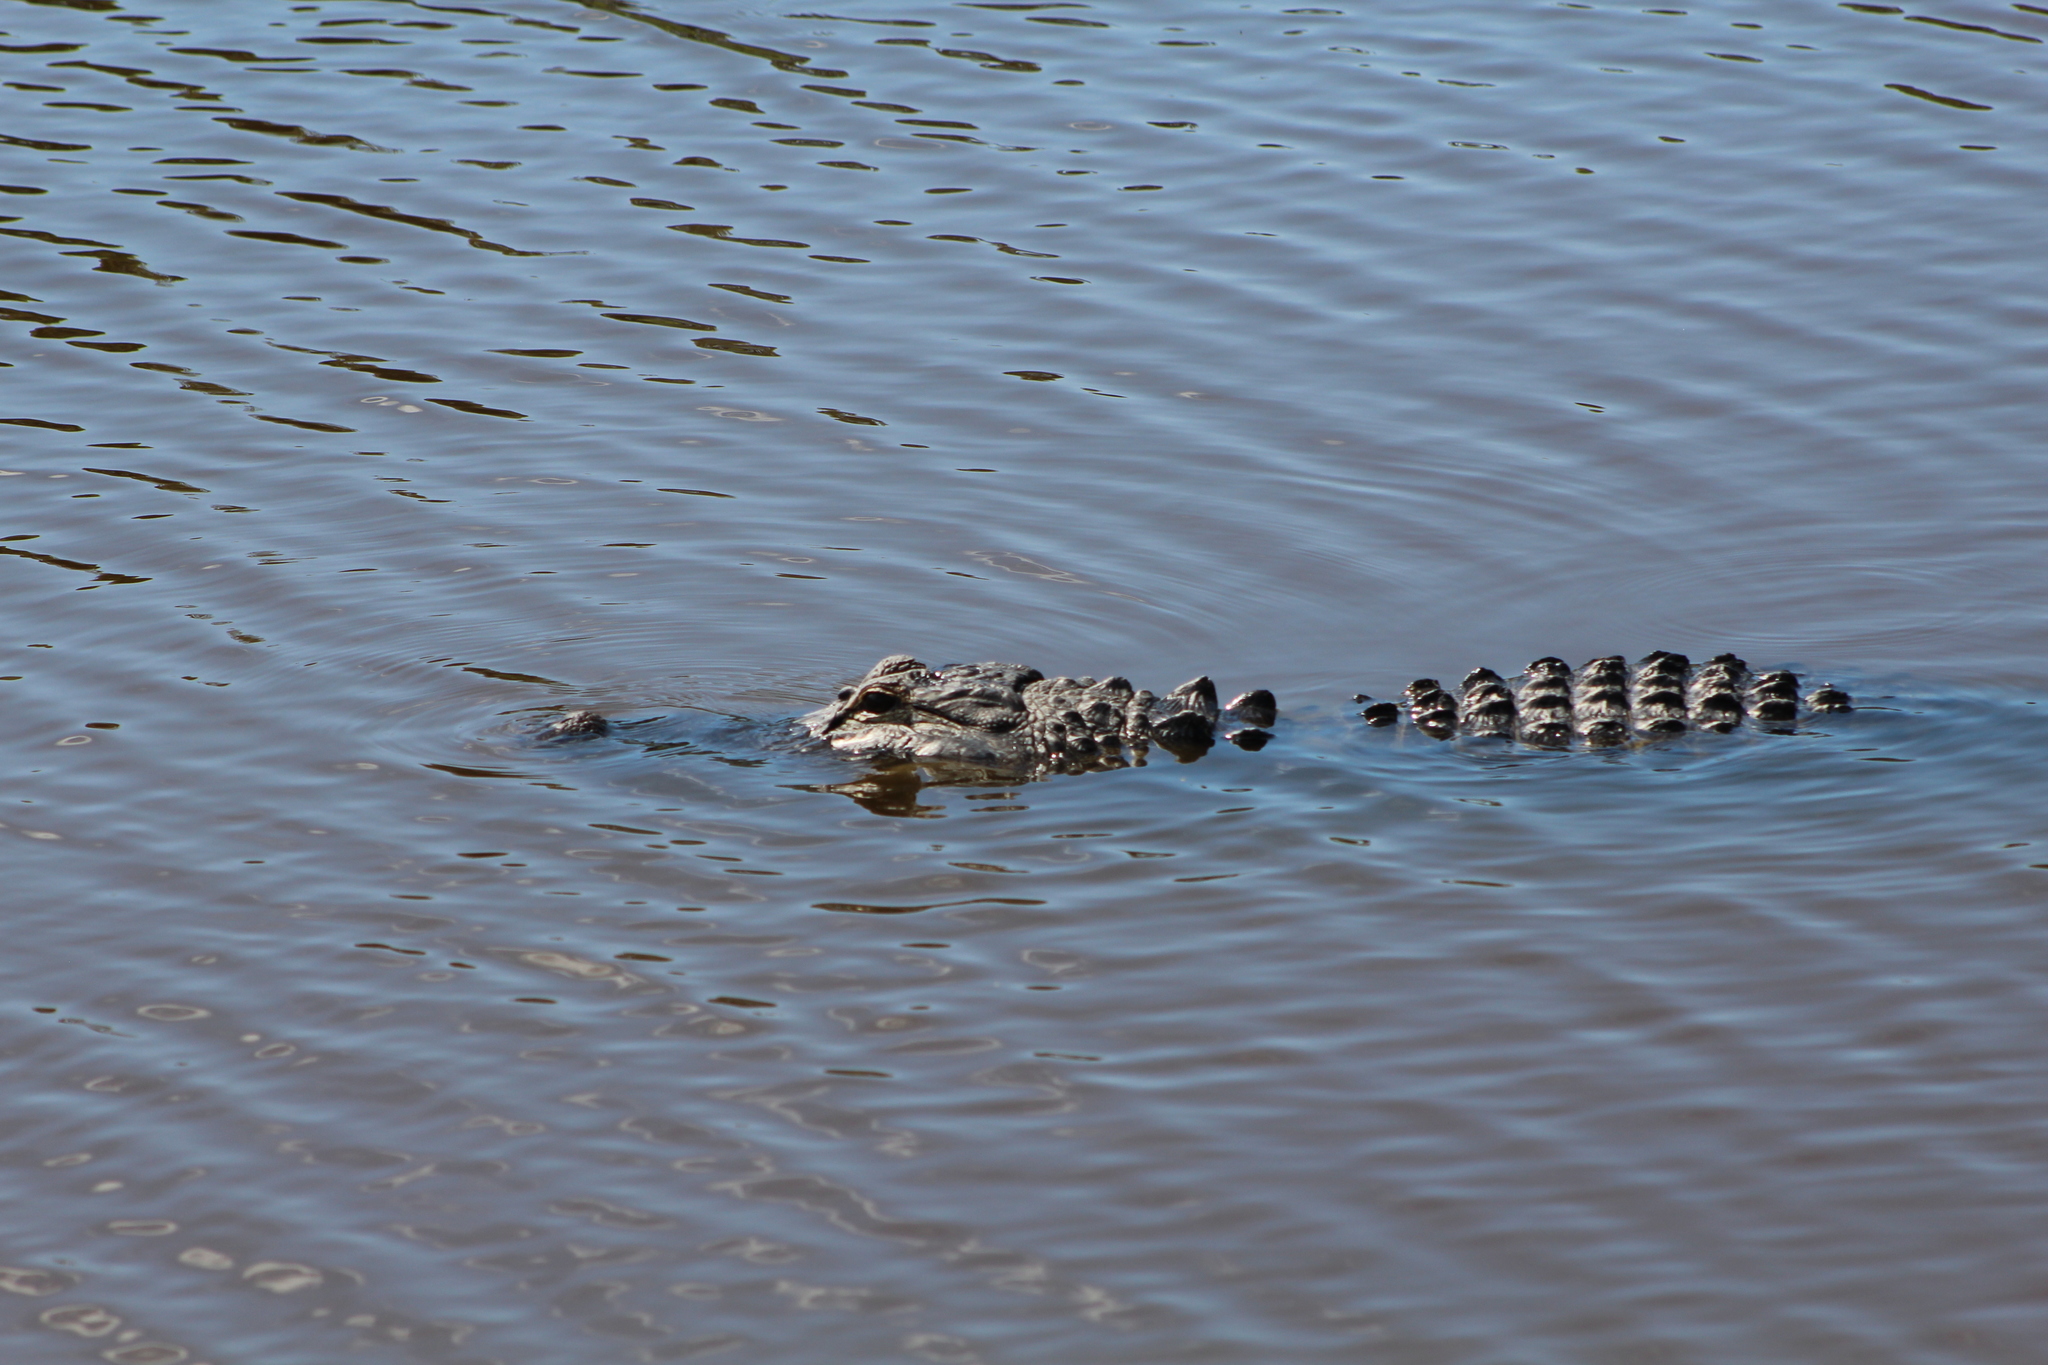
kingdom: Animalia
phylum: Chordata
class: Crocodylia
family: Alligatoridae
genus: Alligator
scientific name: Alligator mississippiensis
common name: American alligator
